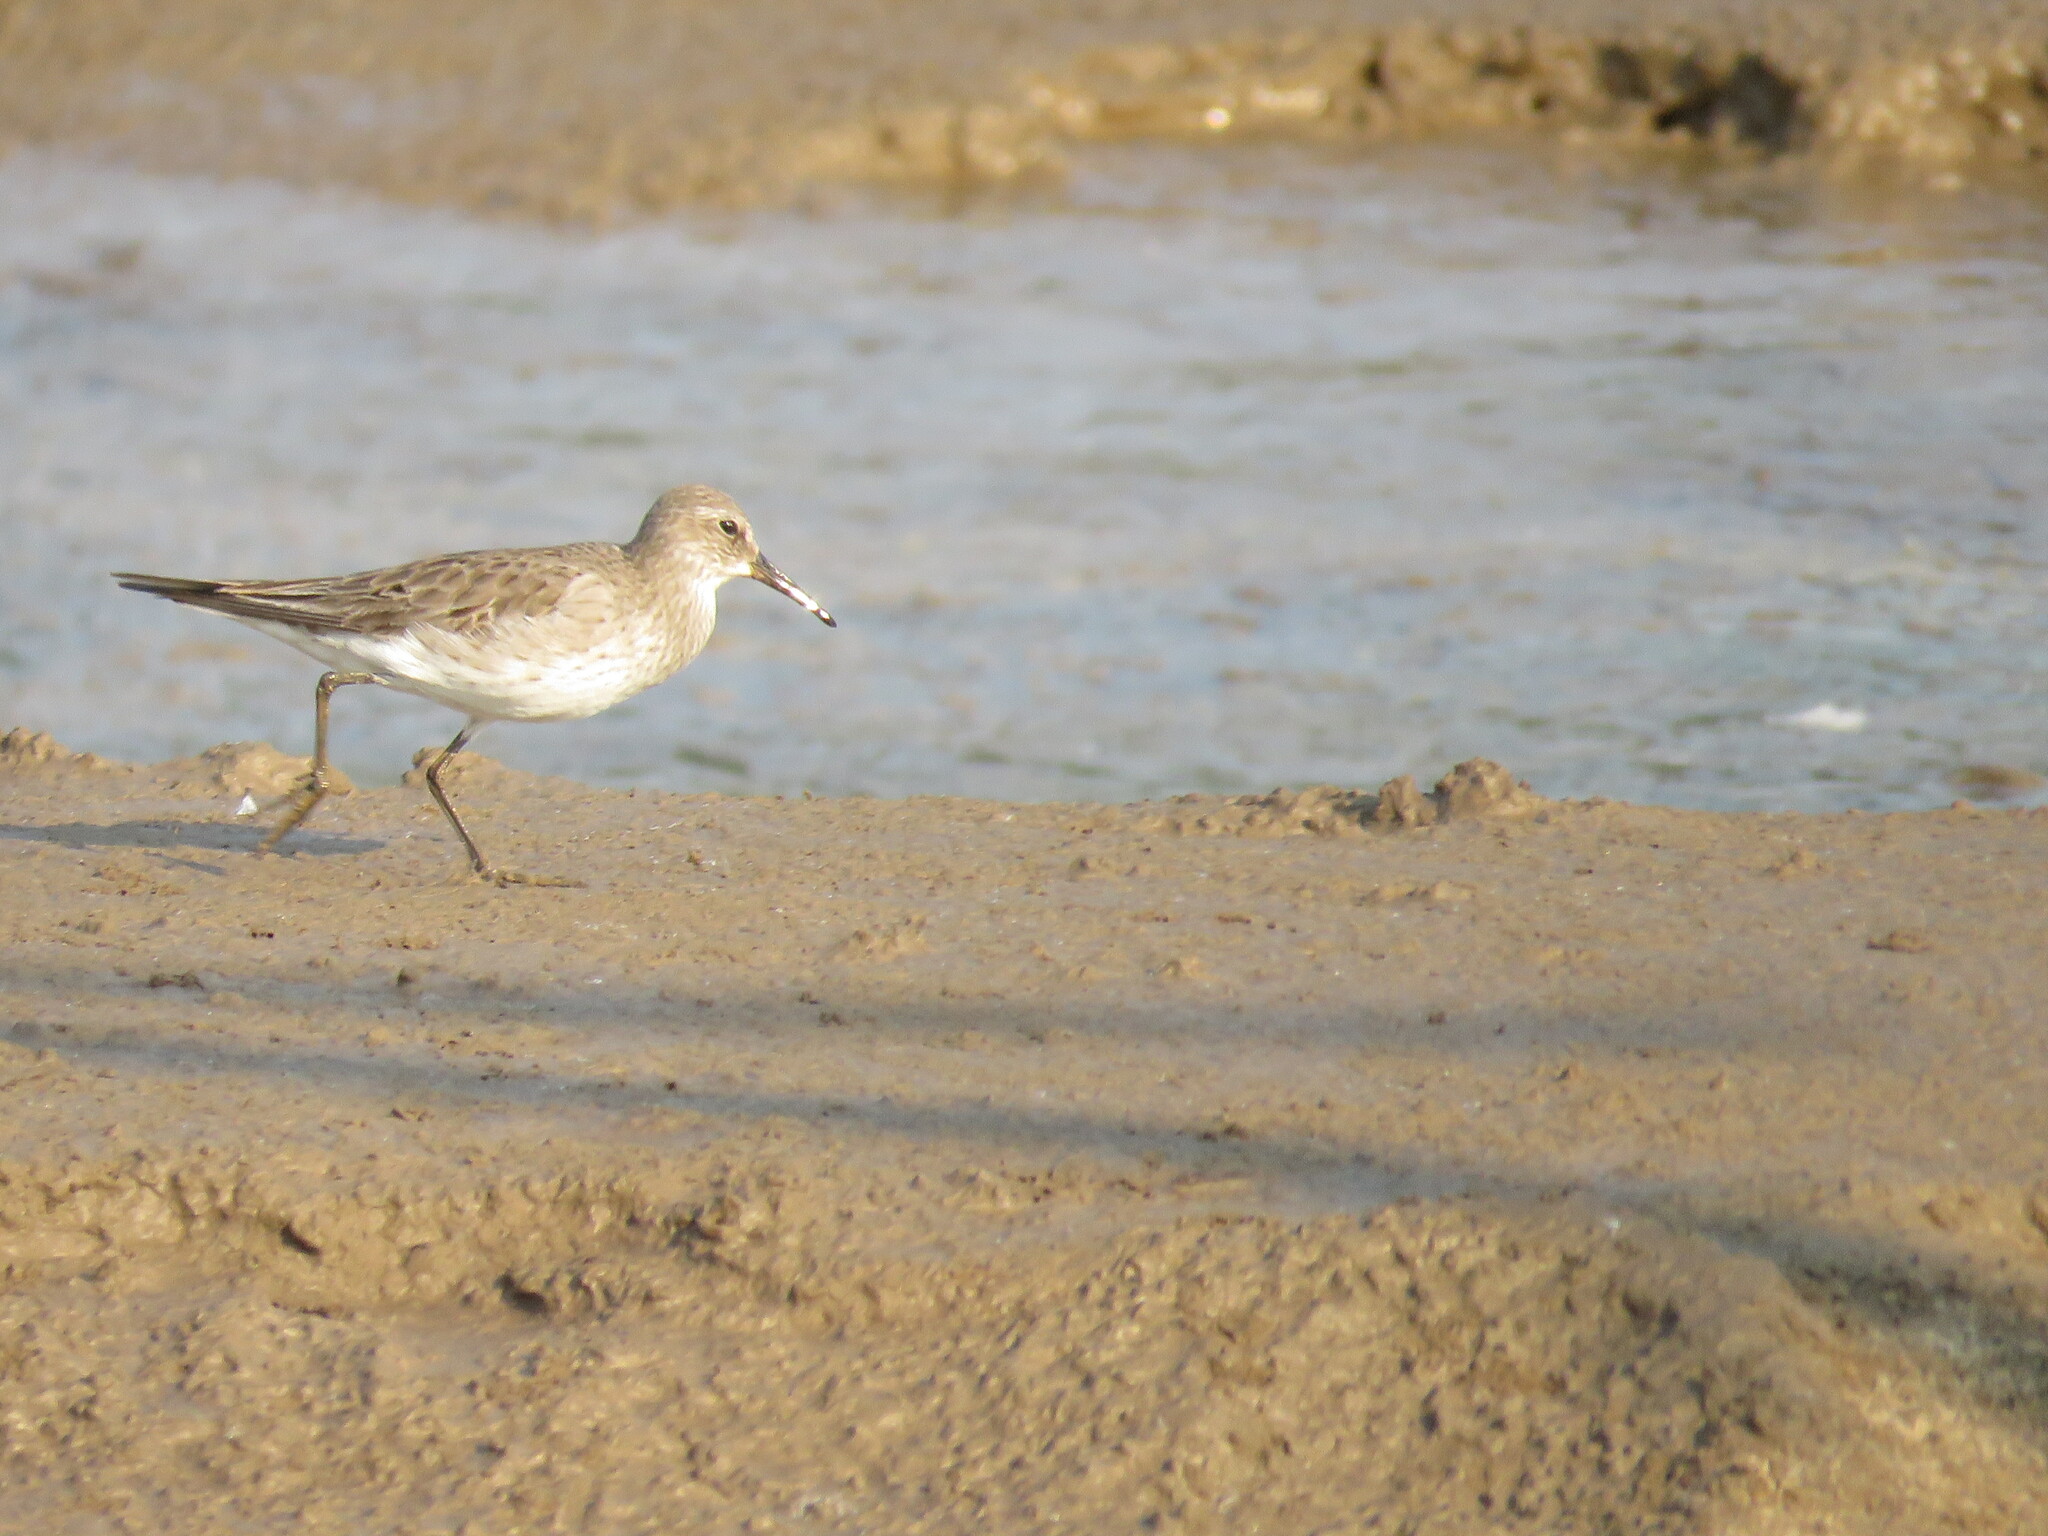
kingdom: Animalia
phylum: Chordata
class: Aves
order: Charadriiformes
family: Scolopacidae
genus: Calidris
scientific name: Calidris fuscicollis
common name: White-rumped sandpiper
